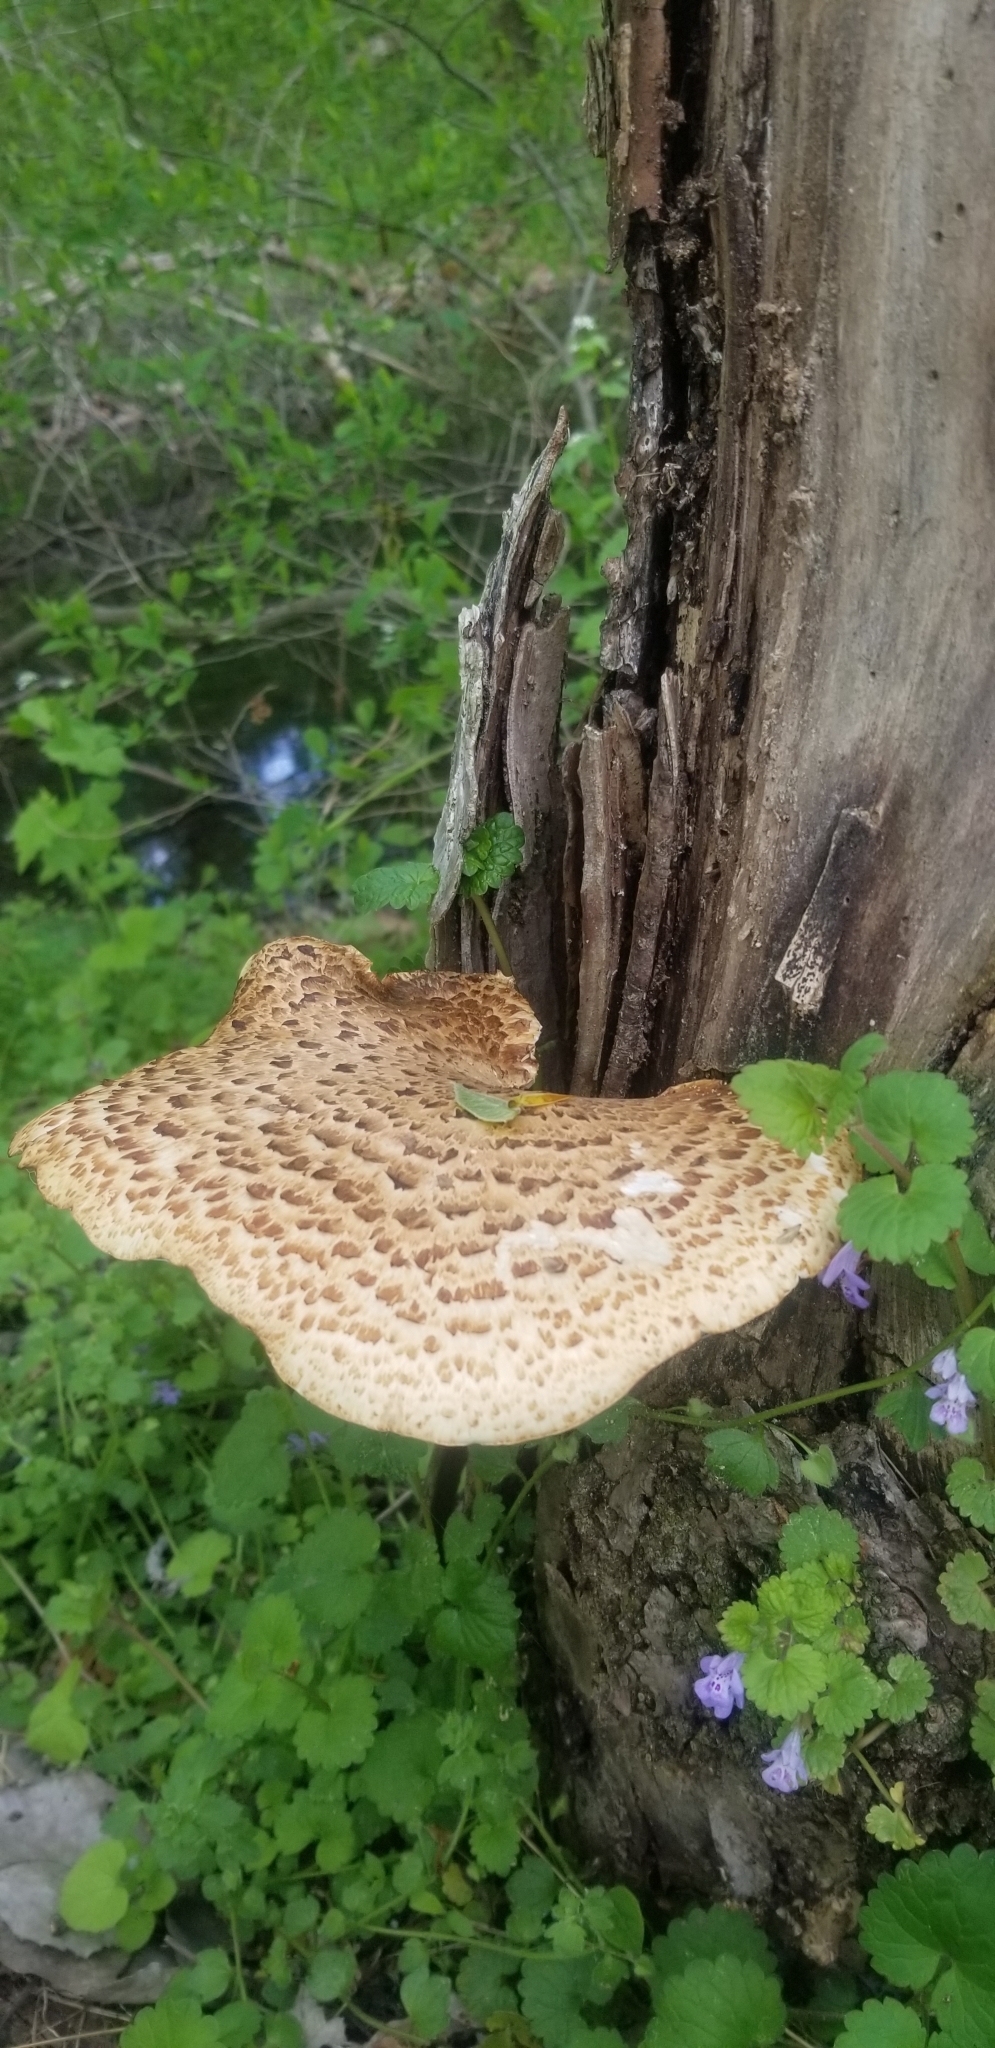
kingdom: Fungi
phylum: Basidiomycota
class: Agaricomycetes
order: Polyporales
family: Polyporaceae
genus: Cerioporus
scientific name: Cerioporus squamosus
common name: Dryad's saddle
